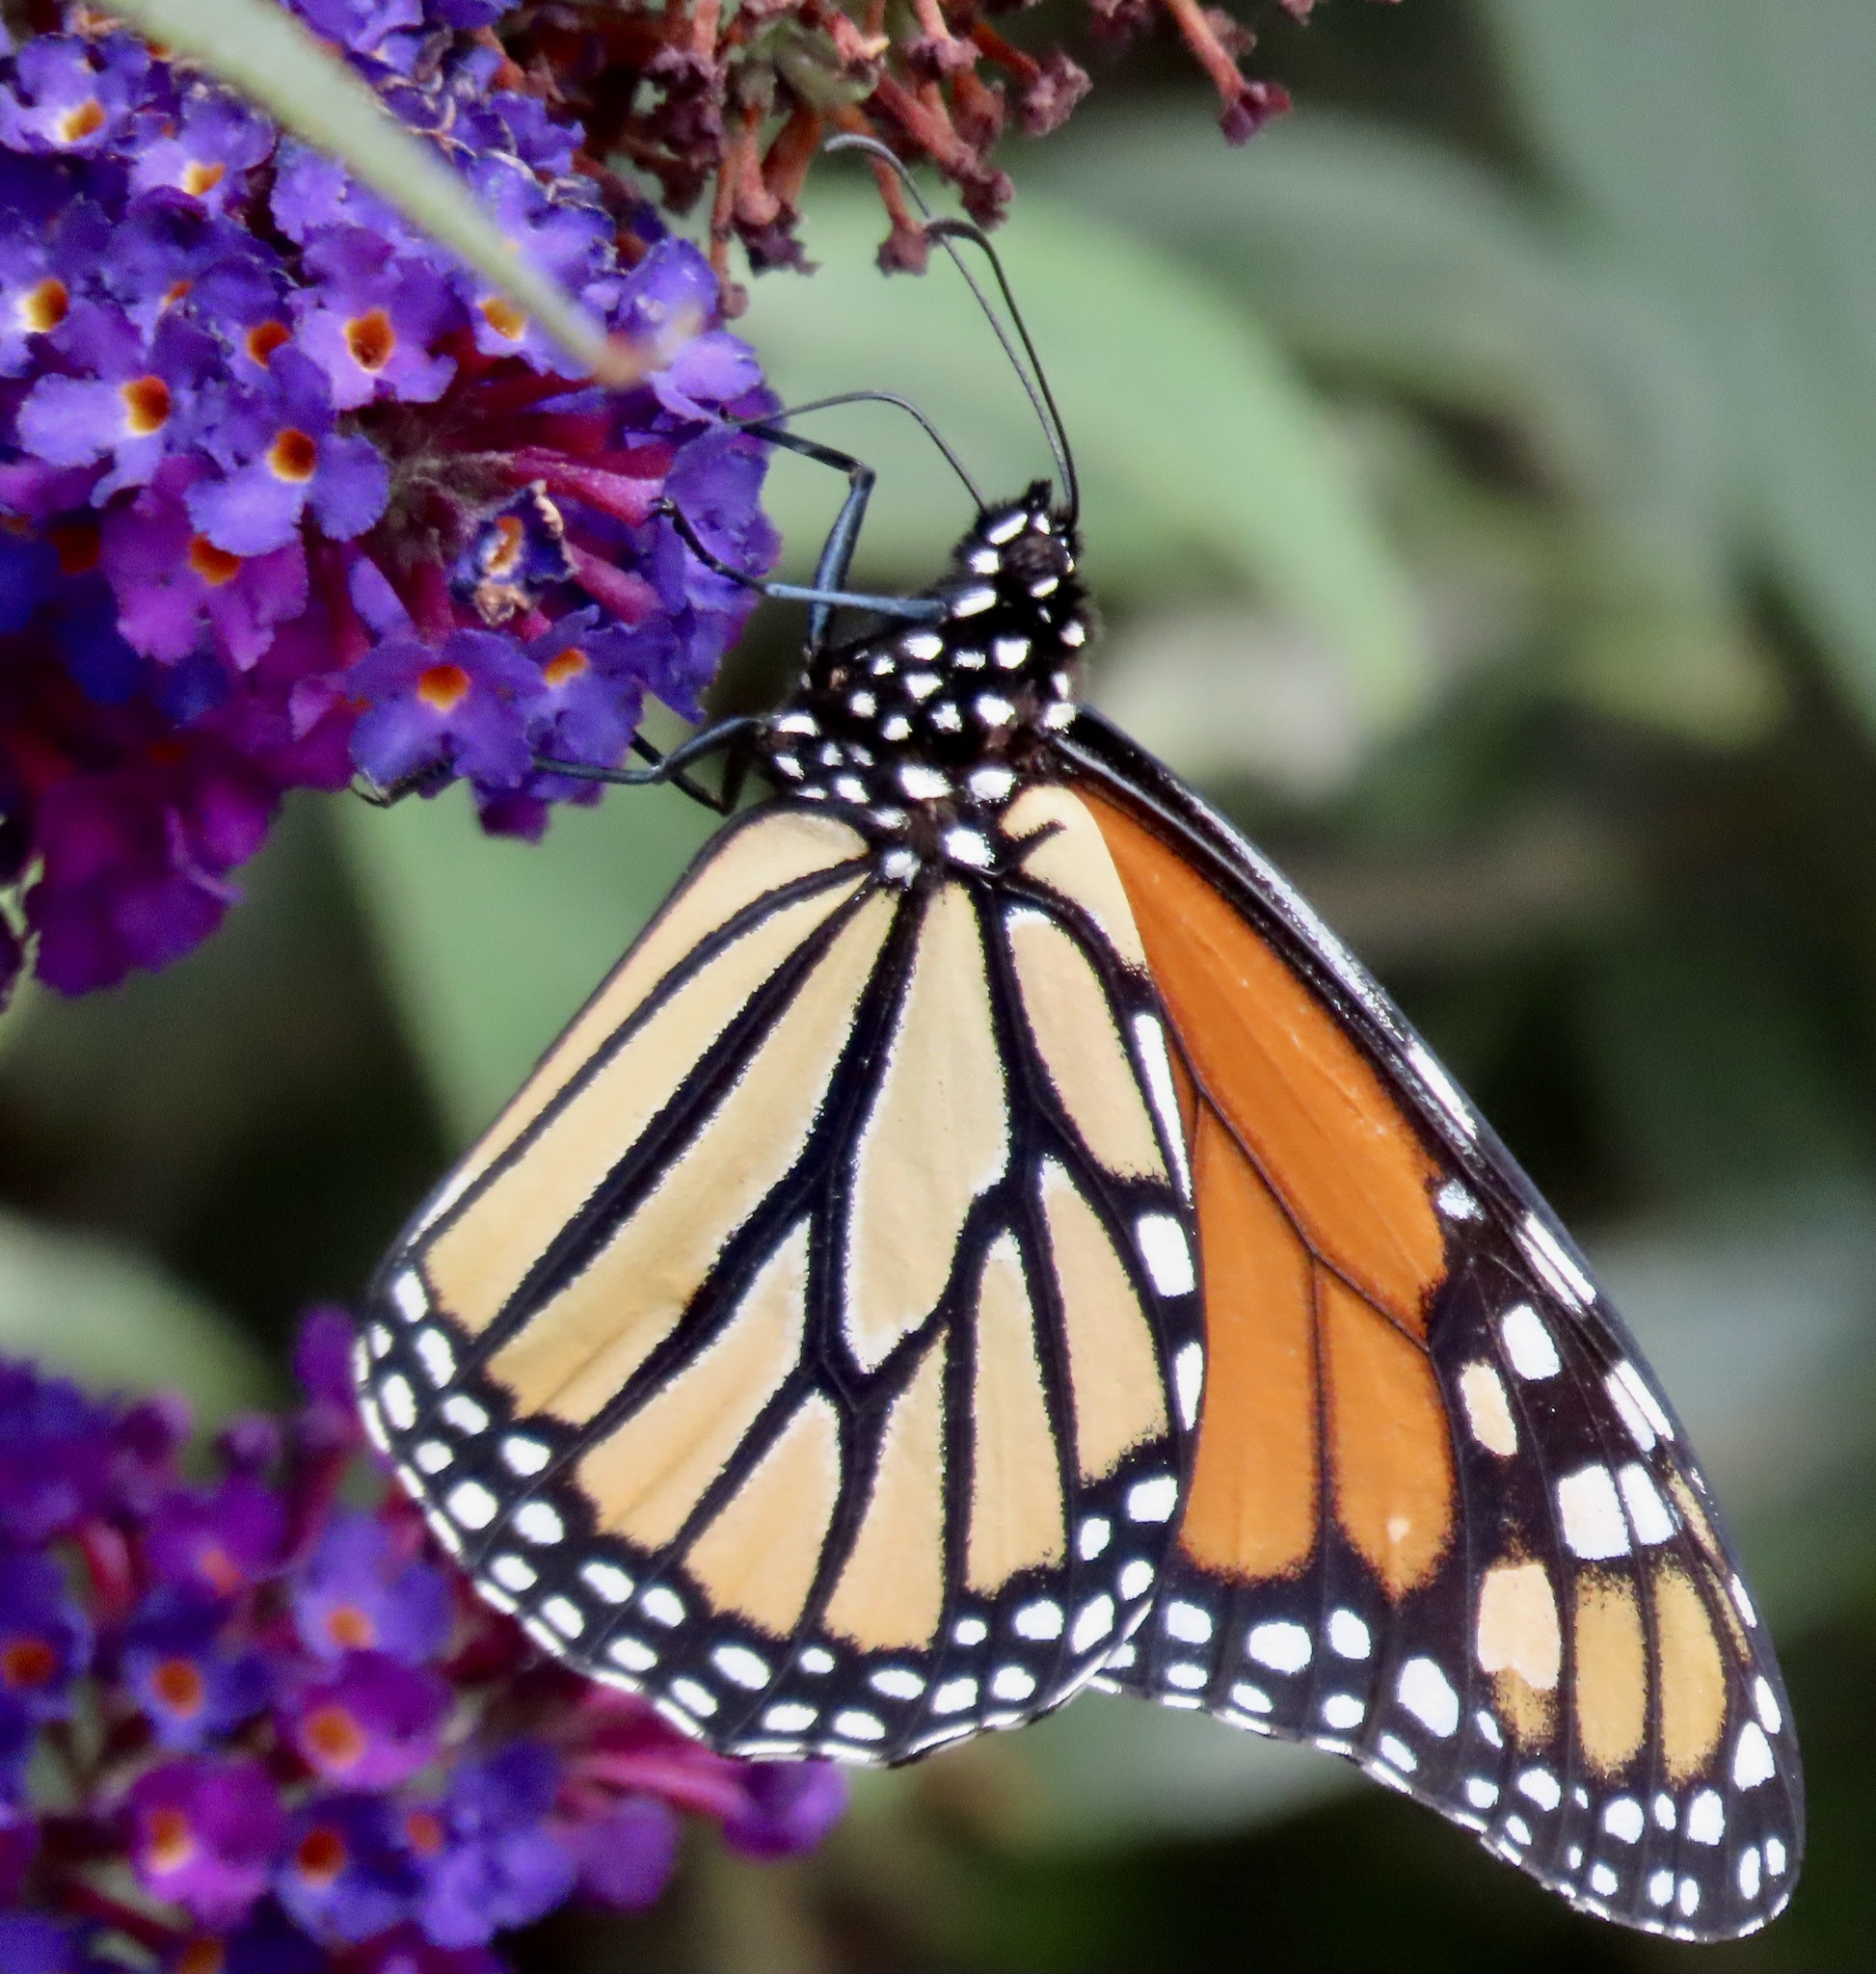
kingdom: Animalia
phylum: Arthropoda
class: Insecta
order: Lepidoptera
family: Nymphalidae
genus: Danaus
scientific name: Danaus plexippus
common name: Monarch
